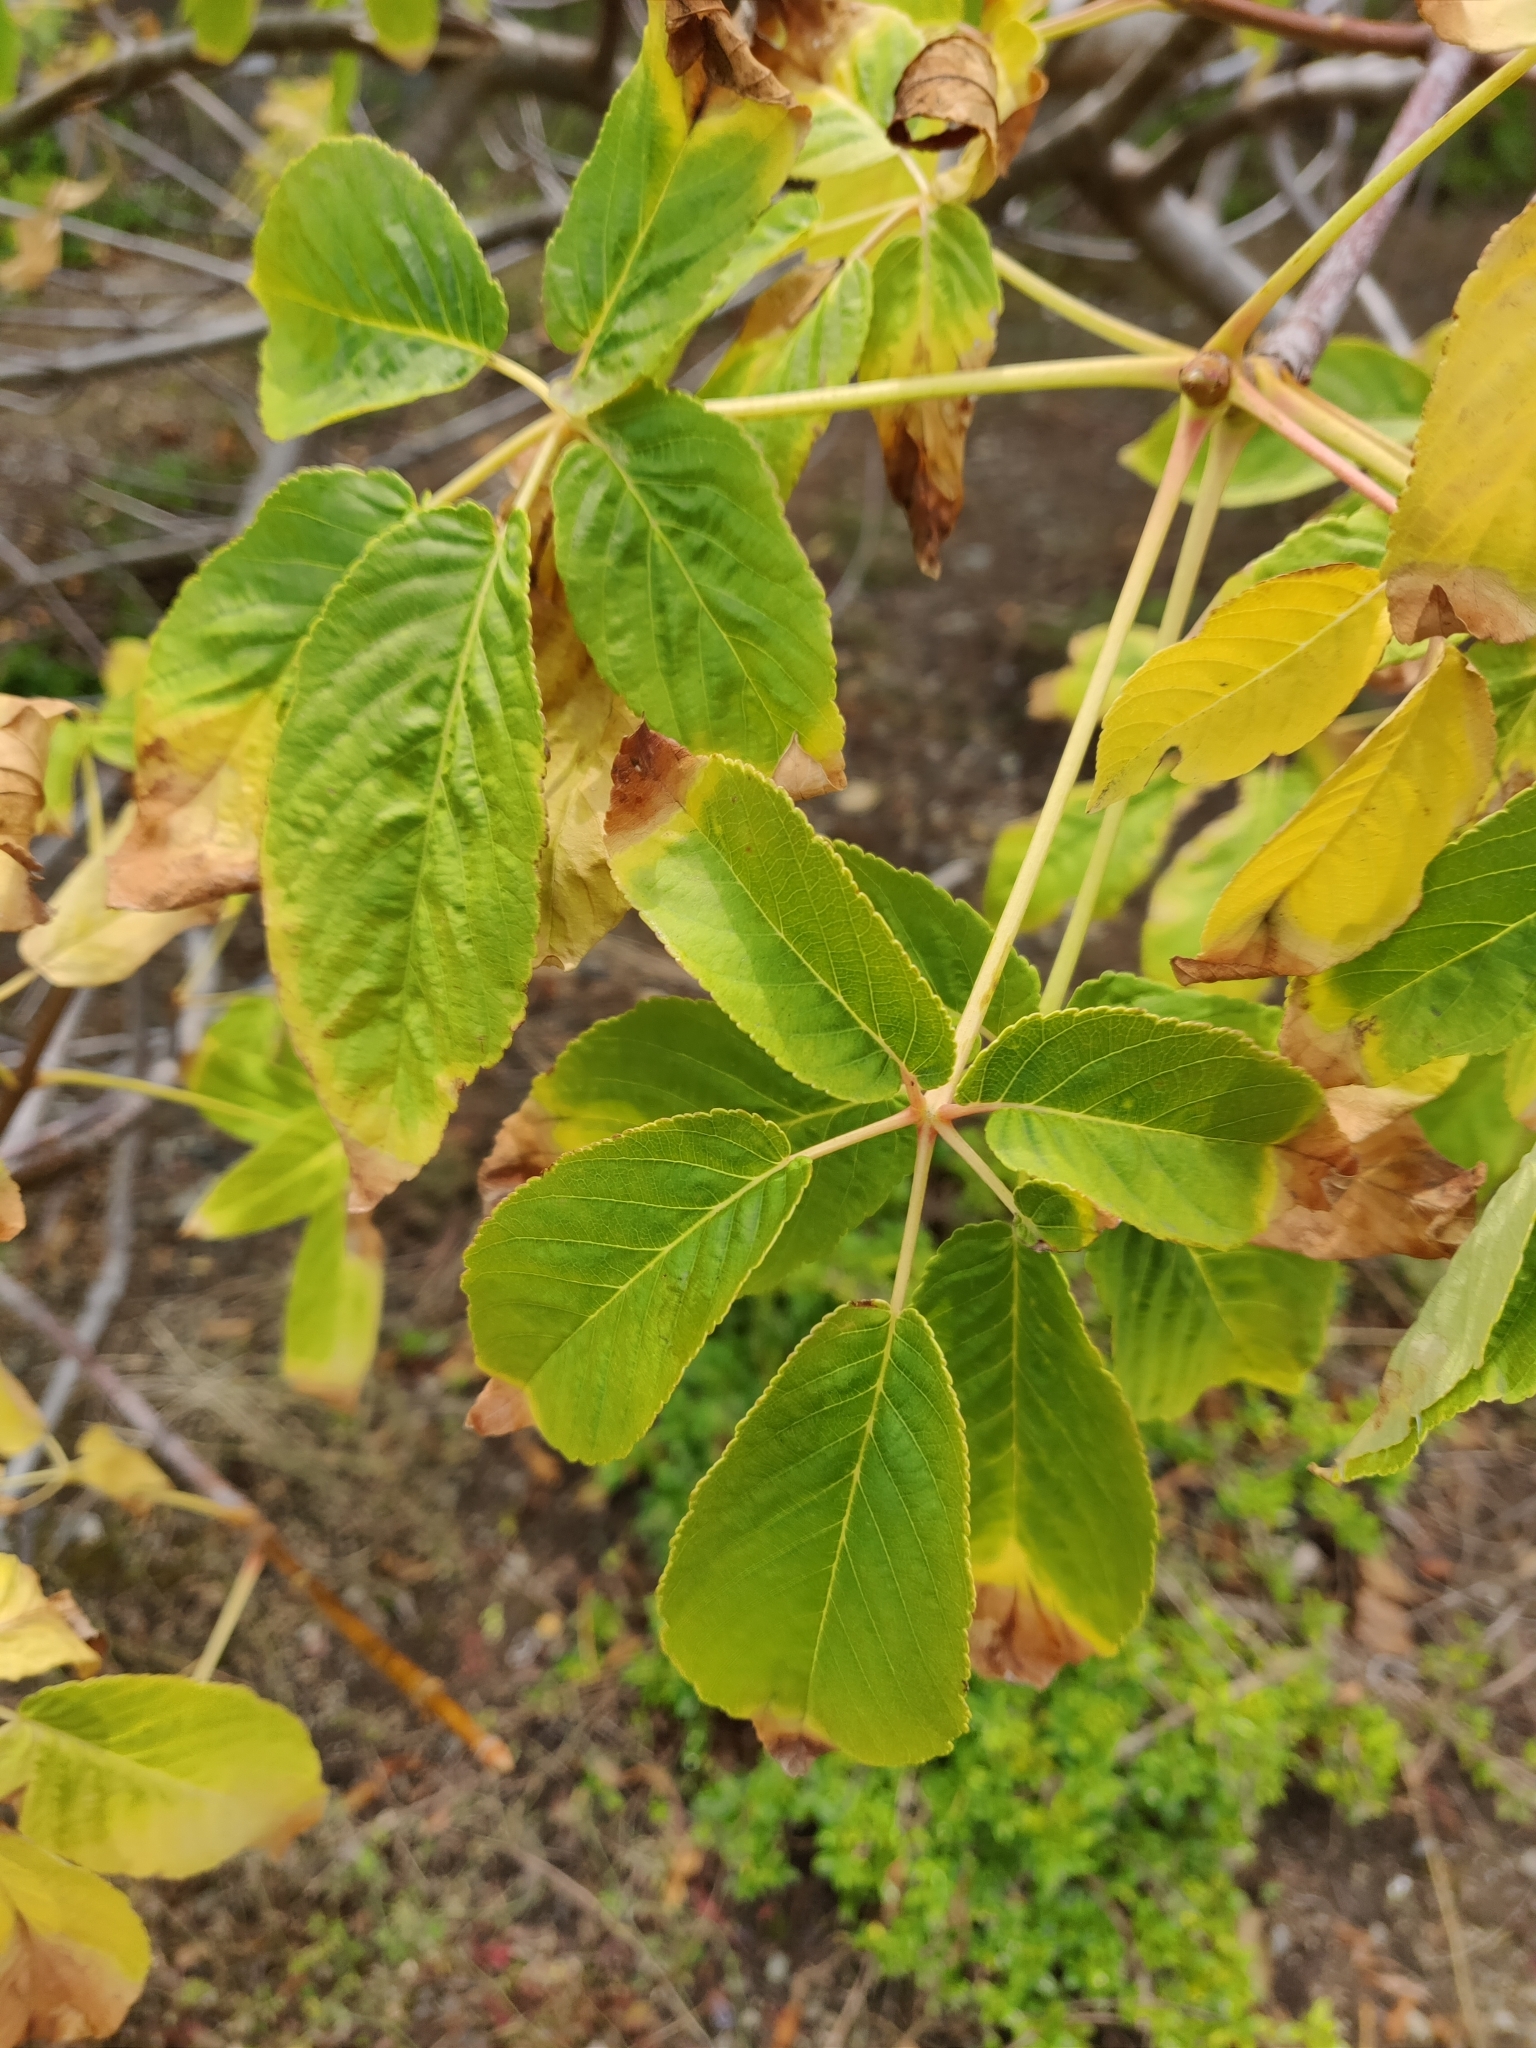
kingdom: Plantae
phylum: Tracheophyta
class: Magnoliopsida
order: Sapindales
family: Sapindaceae
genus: Aesculus
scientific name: Aesculus californica
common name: California buckeye
